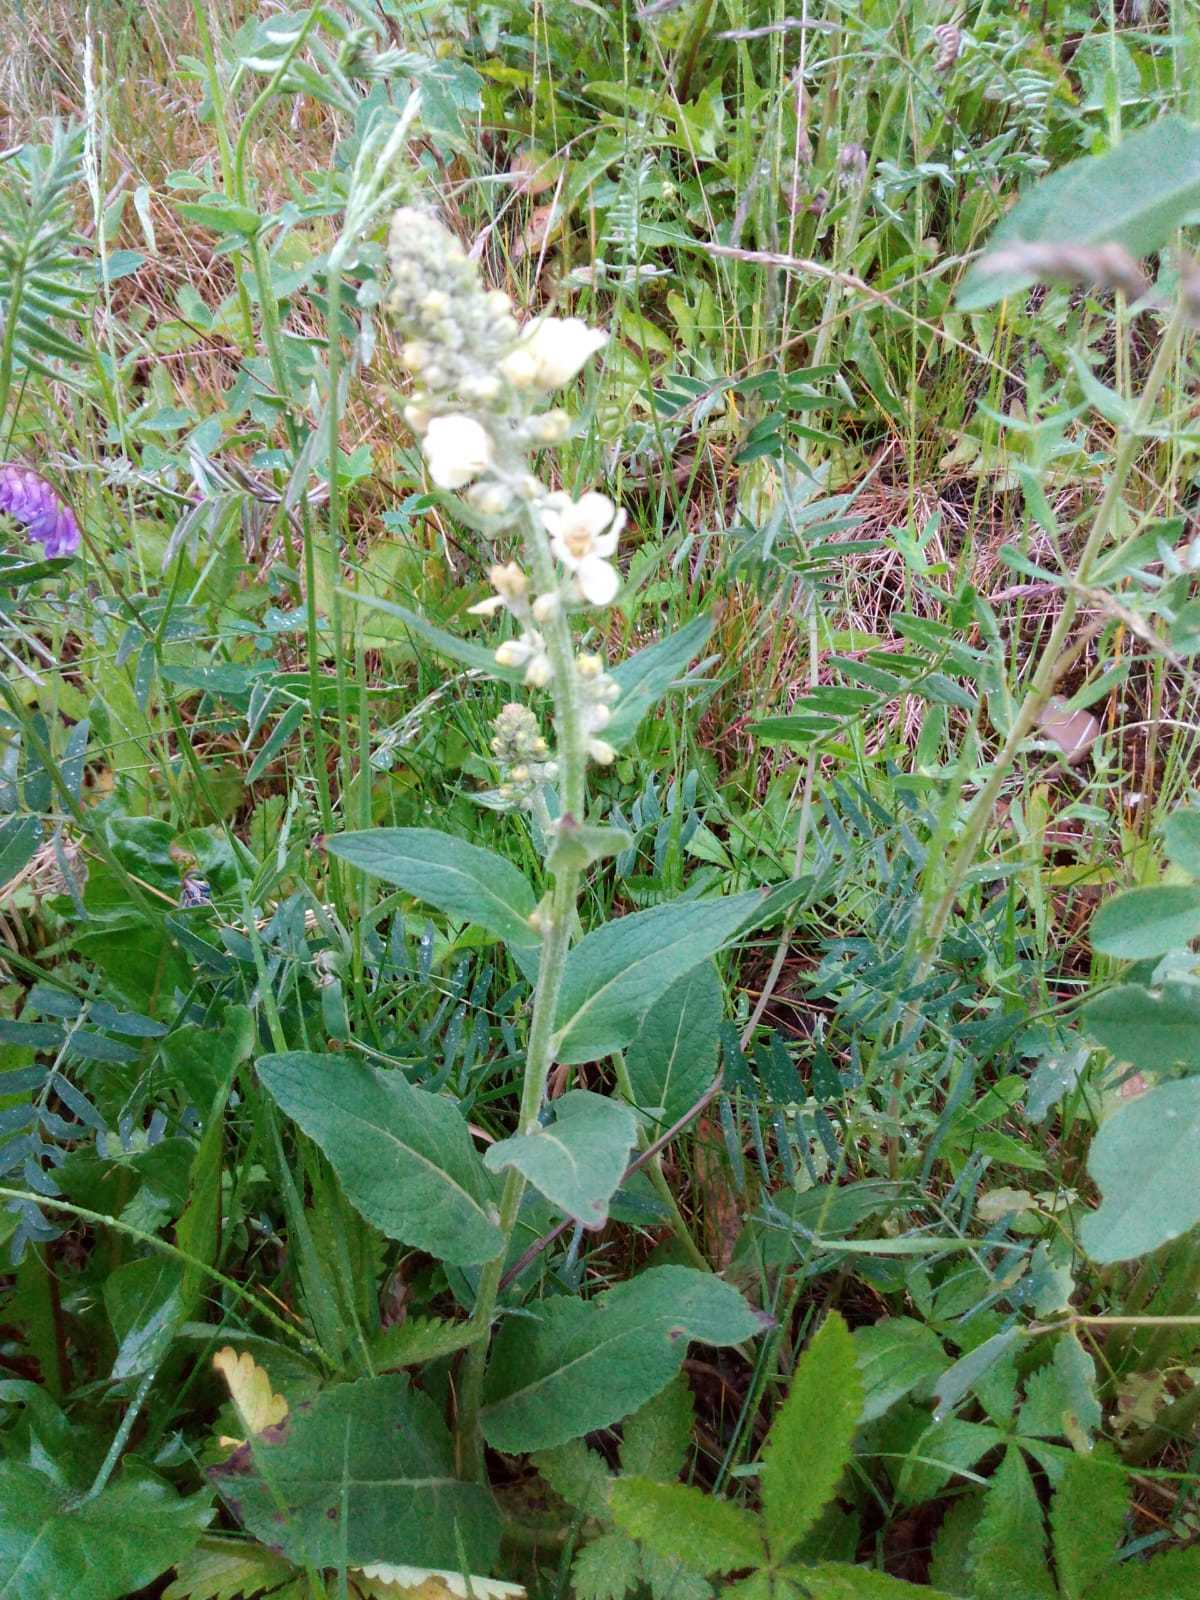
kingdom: Plantae
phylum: Tracheophyta
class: Magnoliopsida
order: Lamiales
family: Scrophulariaceae
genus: Verbascum
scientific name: Verbascum lychnitis
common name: White mullein
